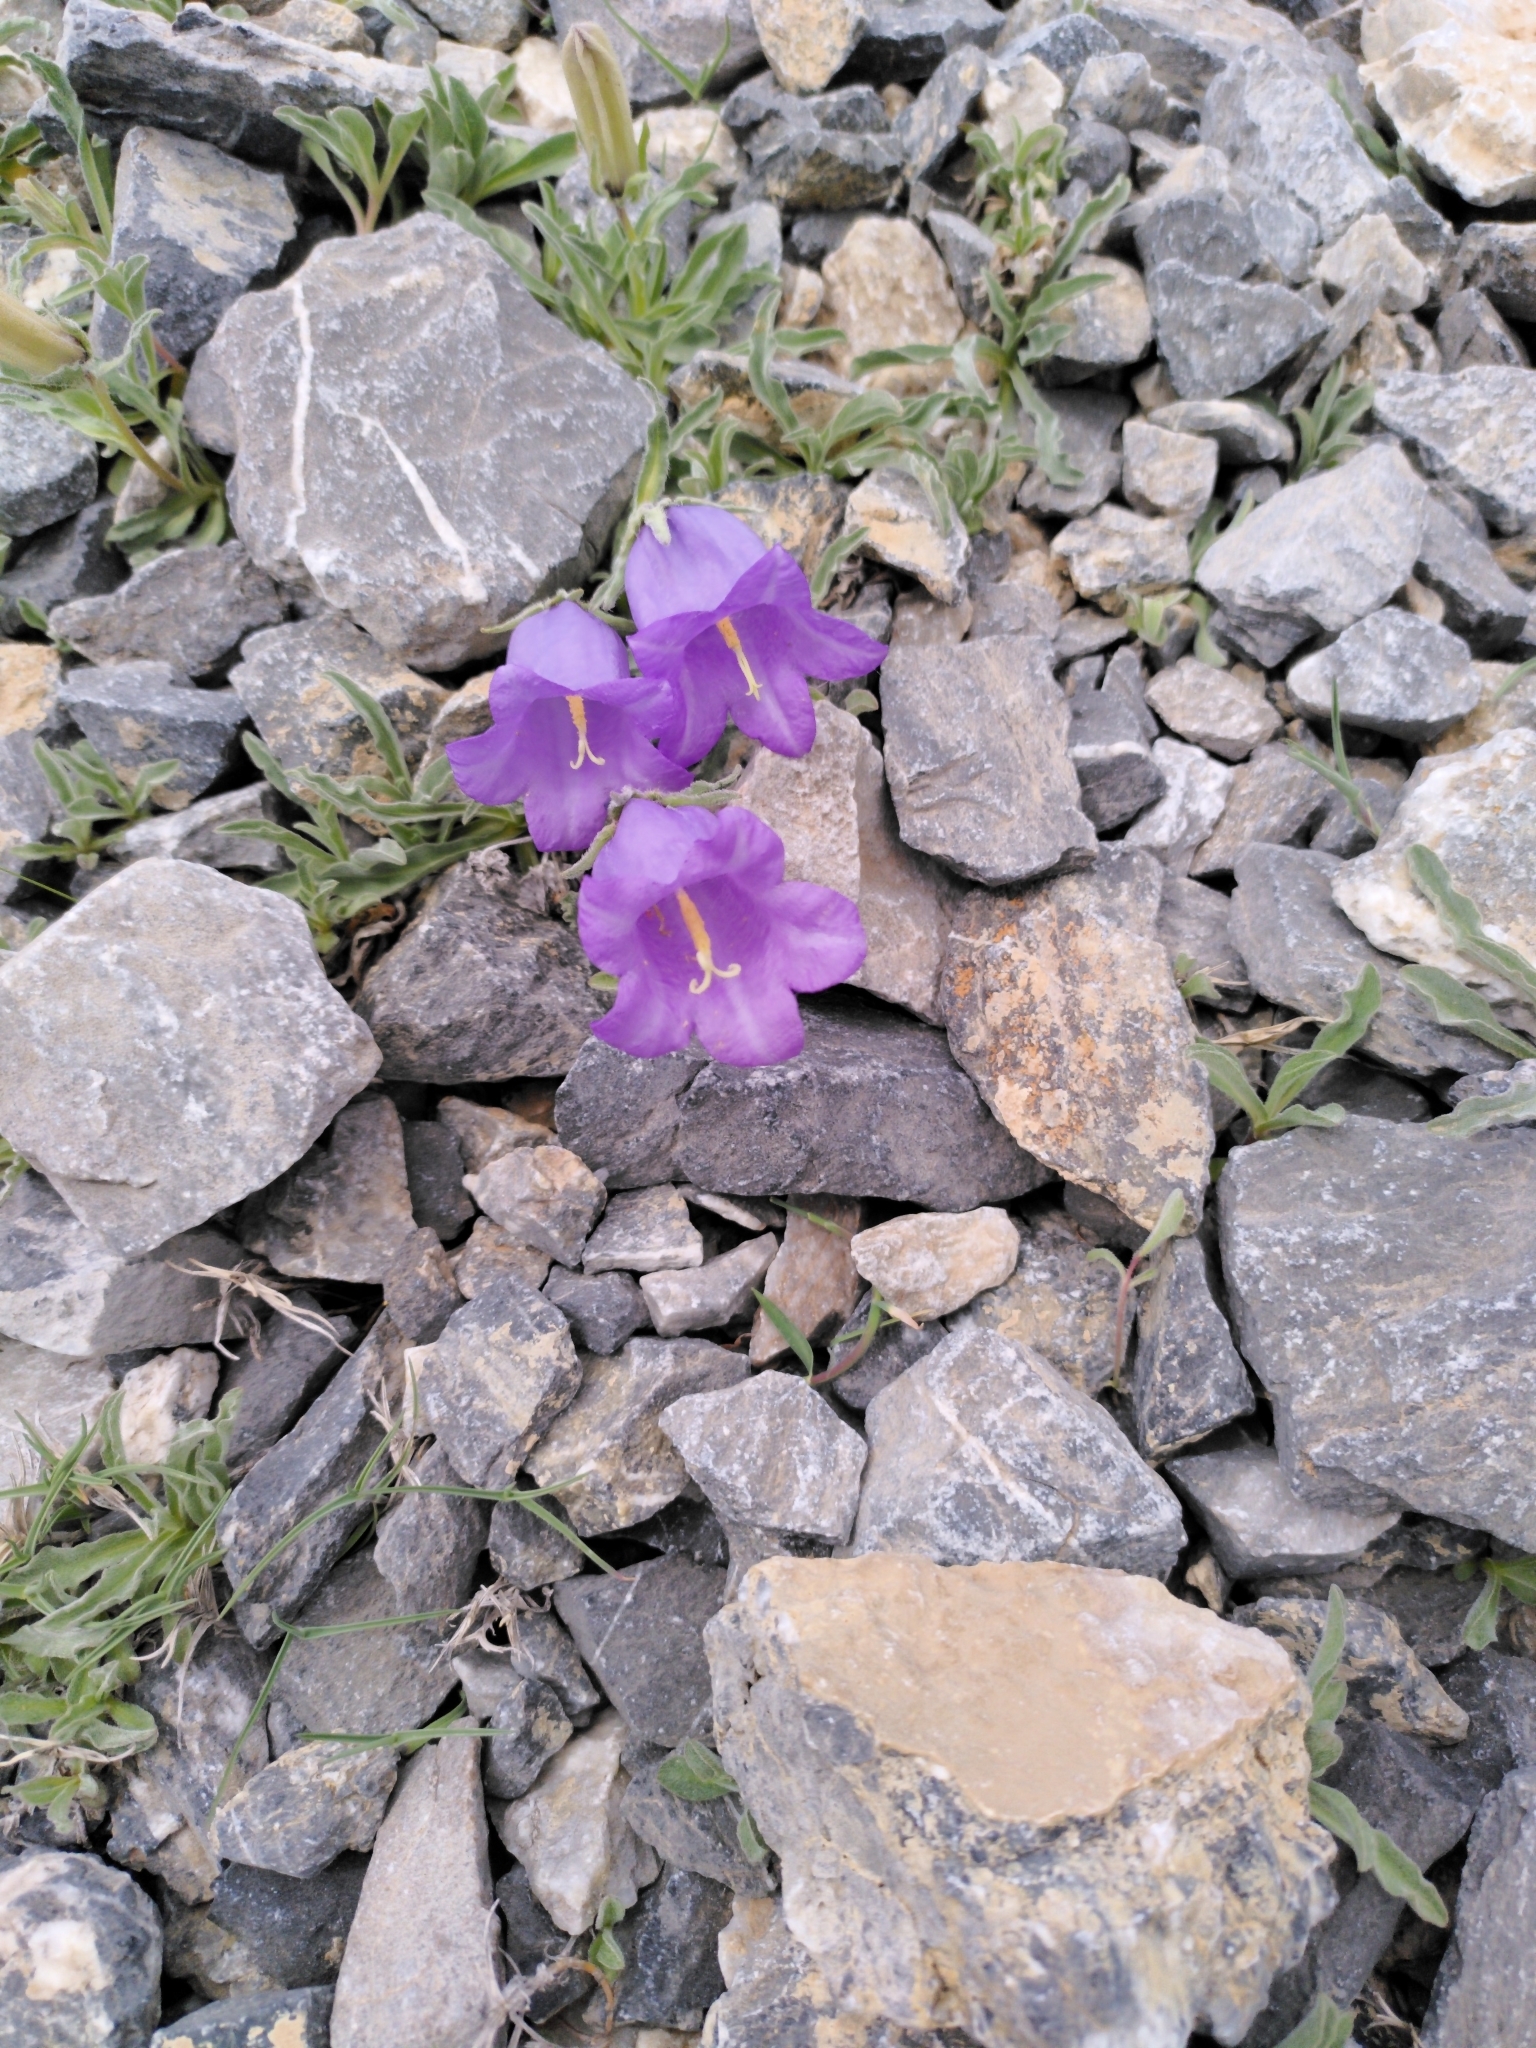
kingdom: Plantae
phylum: Tracheophyta
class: Magnoliopsida
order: Asterales
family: Campanulaceae
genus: Campanula
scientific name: Campanula alpestris
